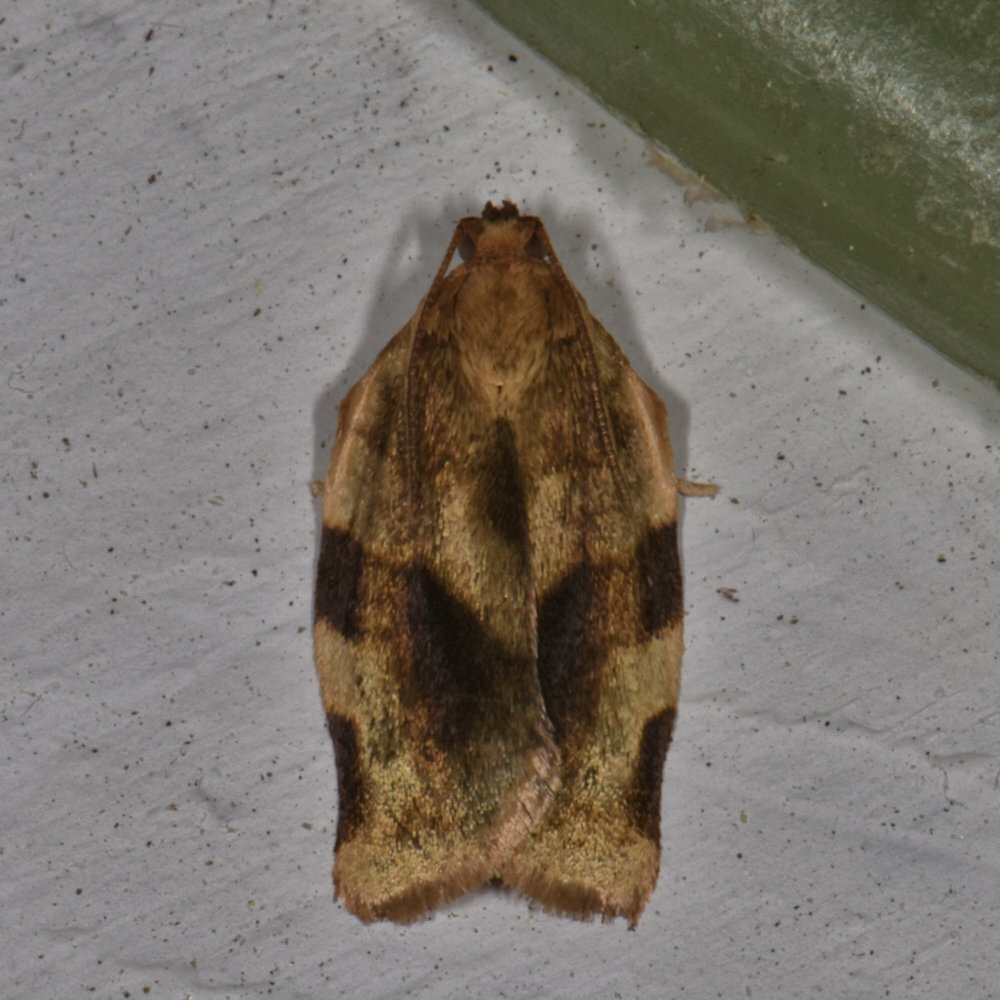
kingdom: Animalia
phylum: Arthropoda
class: Insecta
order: Lepidoptera
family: Tortricidae
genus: Choristoneura
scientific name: Choristoneura fractivittana
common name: Broken-banded leafroller moth
